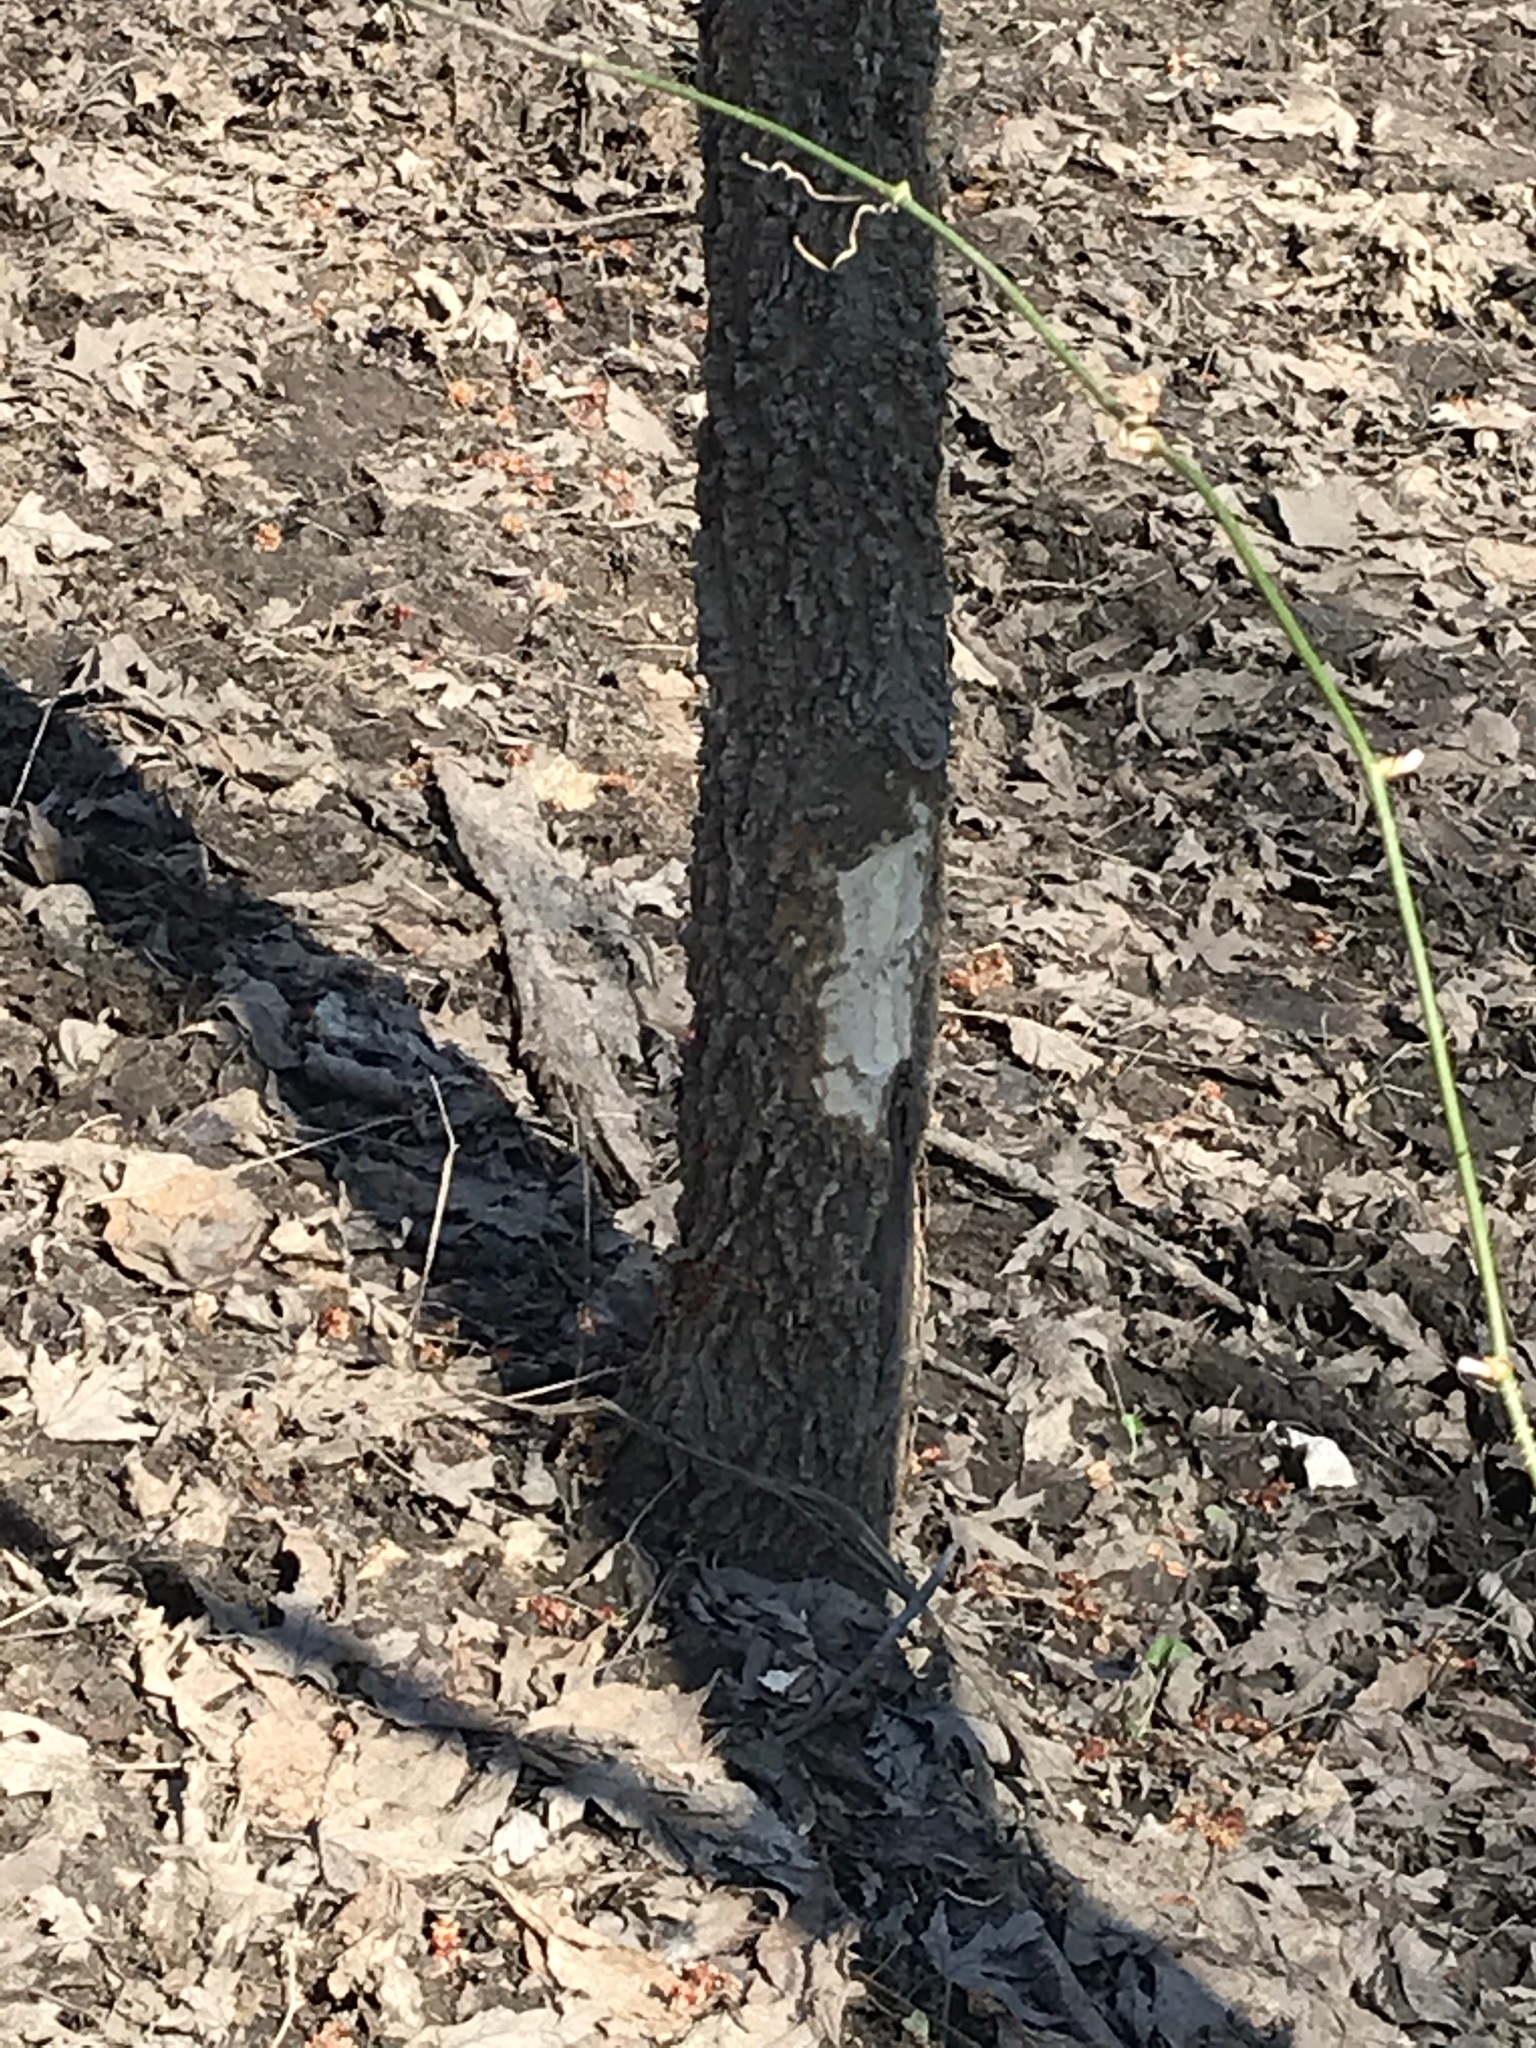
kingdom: Animalia
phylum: Chordata
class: Mammalia
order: Rodentia
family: Castoridae
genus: Castor
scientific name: Castor canadensis
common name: American beaver
